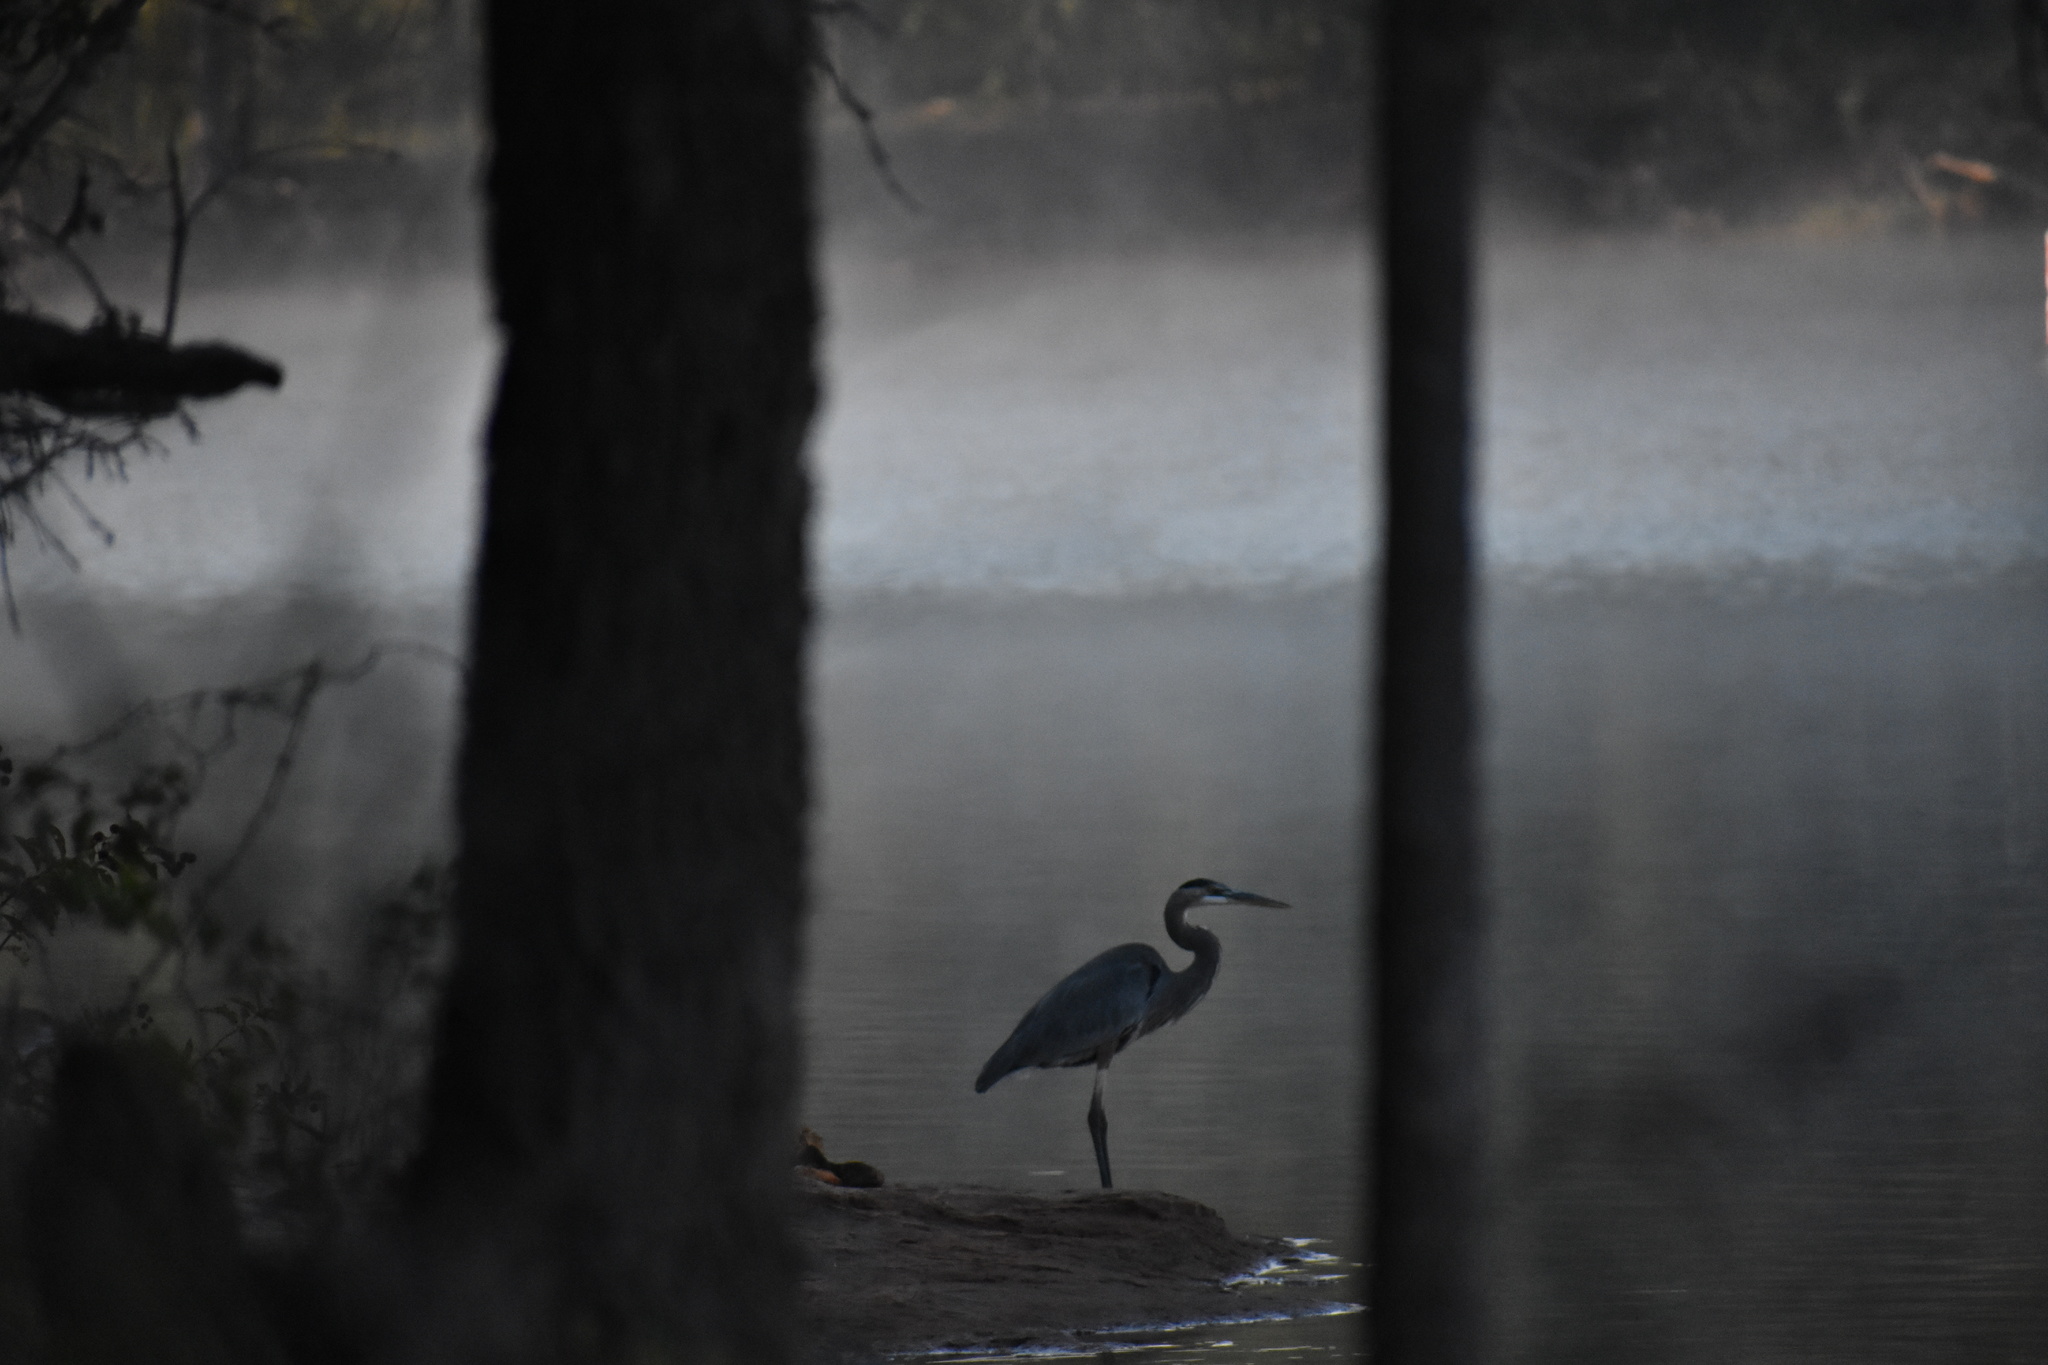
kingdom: Animalia
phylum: Chordata
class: Aves
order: Pelecaniformes
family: Ardeidae
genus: Ardea
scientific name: Ardea herodias
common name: Great blue heron
